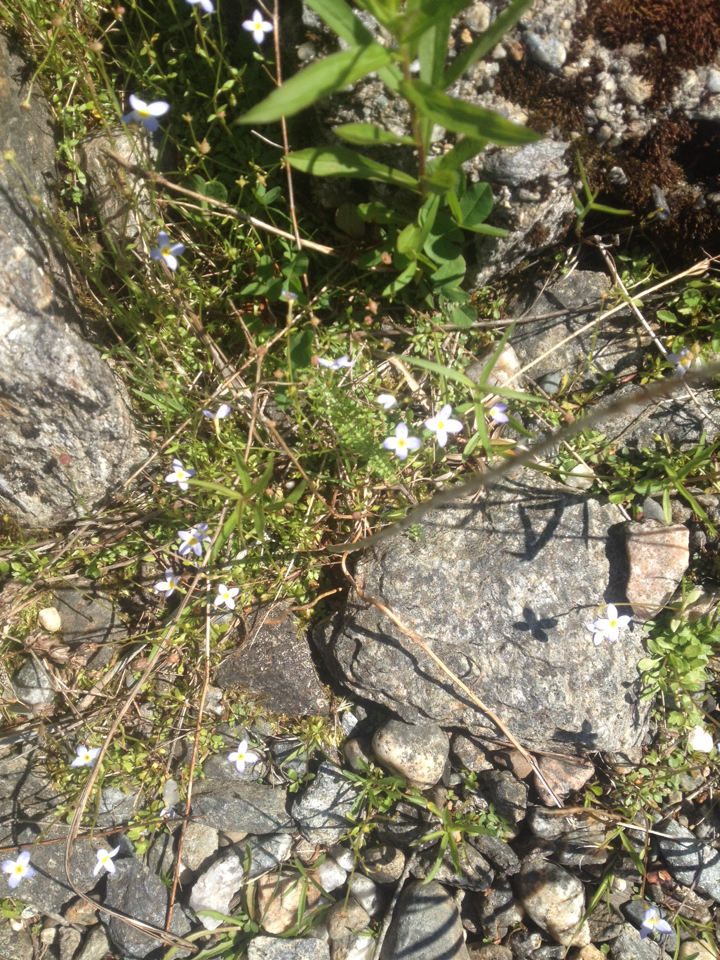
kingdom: Plantae
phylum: Tracheophyta
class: Magnoliopsida
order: Gentianales
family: Rubiaceae
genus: Houstonia
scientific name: Houstonia caerulea
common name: Bluets
